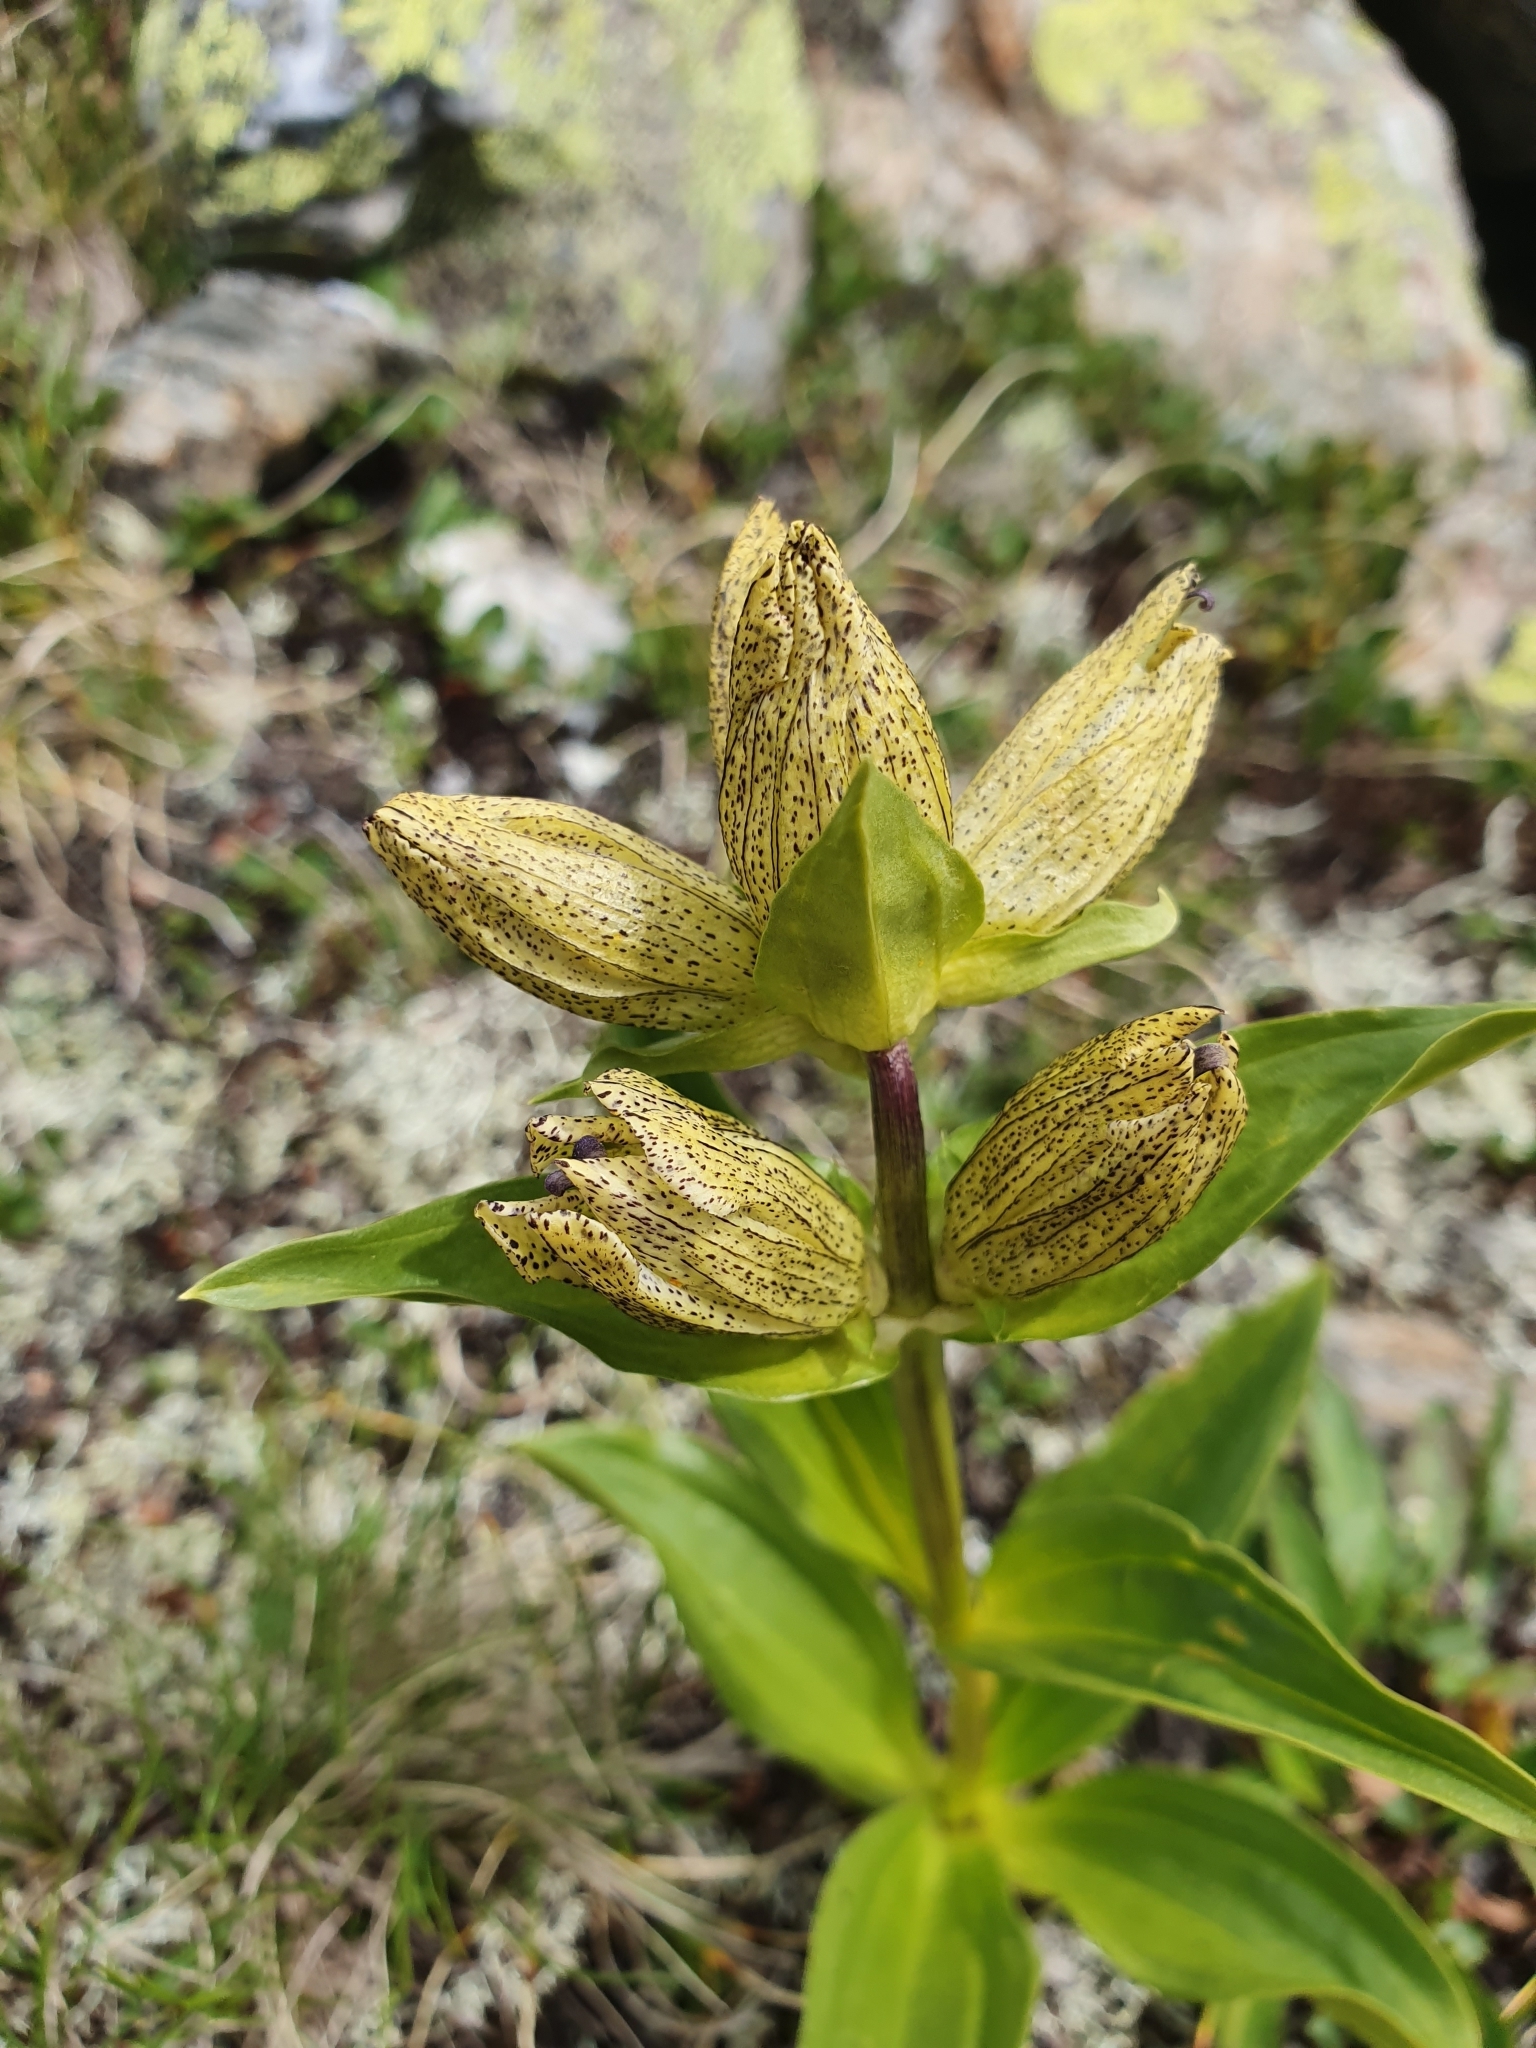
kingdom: Plantae
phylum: Tracheophyta
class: Magnoliopsida
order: Gentianales
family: Gentianaceae
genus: Gentiana
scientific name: Gentiana punctata
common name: Spotted gentian
